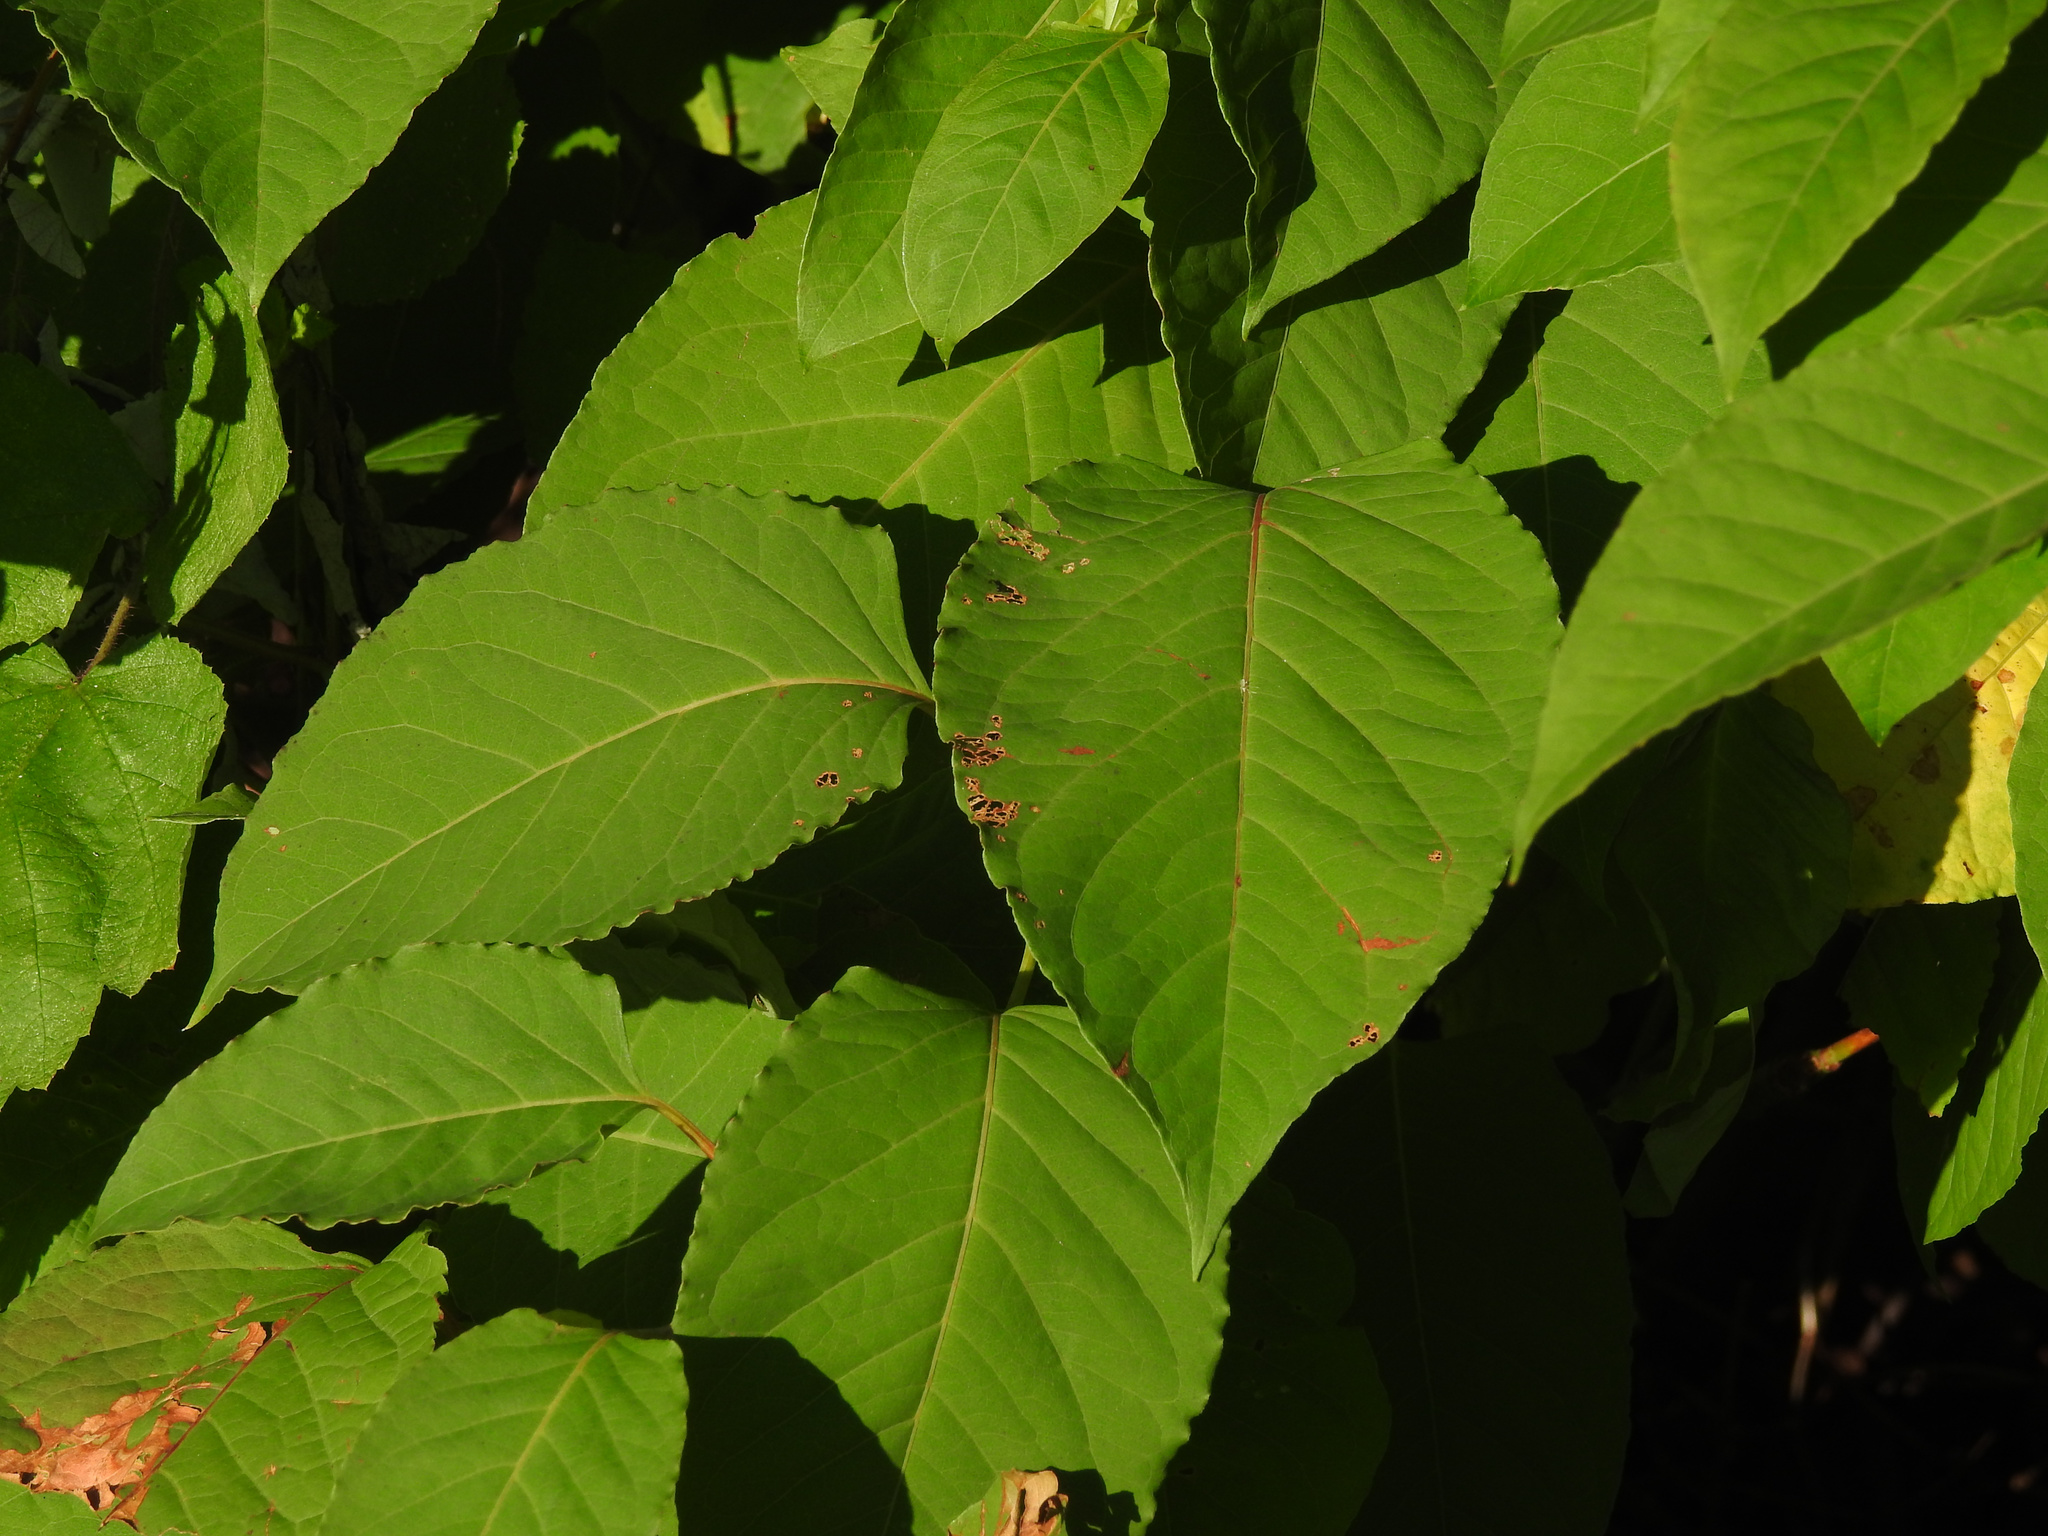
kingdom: Plantae
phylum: Tracheophyta
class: Magnoliopsida
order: Caryophyllales
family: Polygonaceae
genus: Reynoutria
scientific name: Reynoutria japonica
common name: Japanese knotweed
